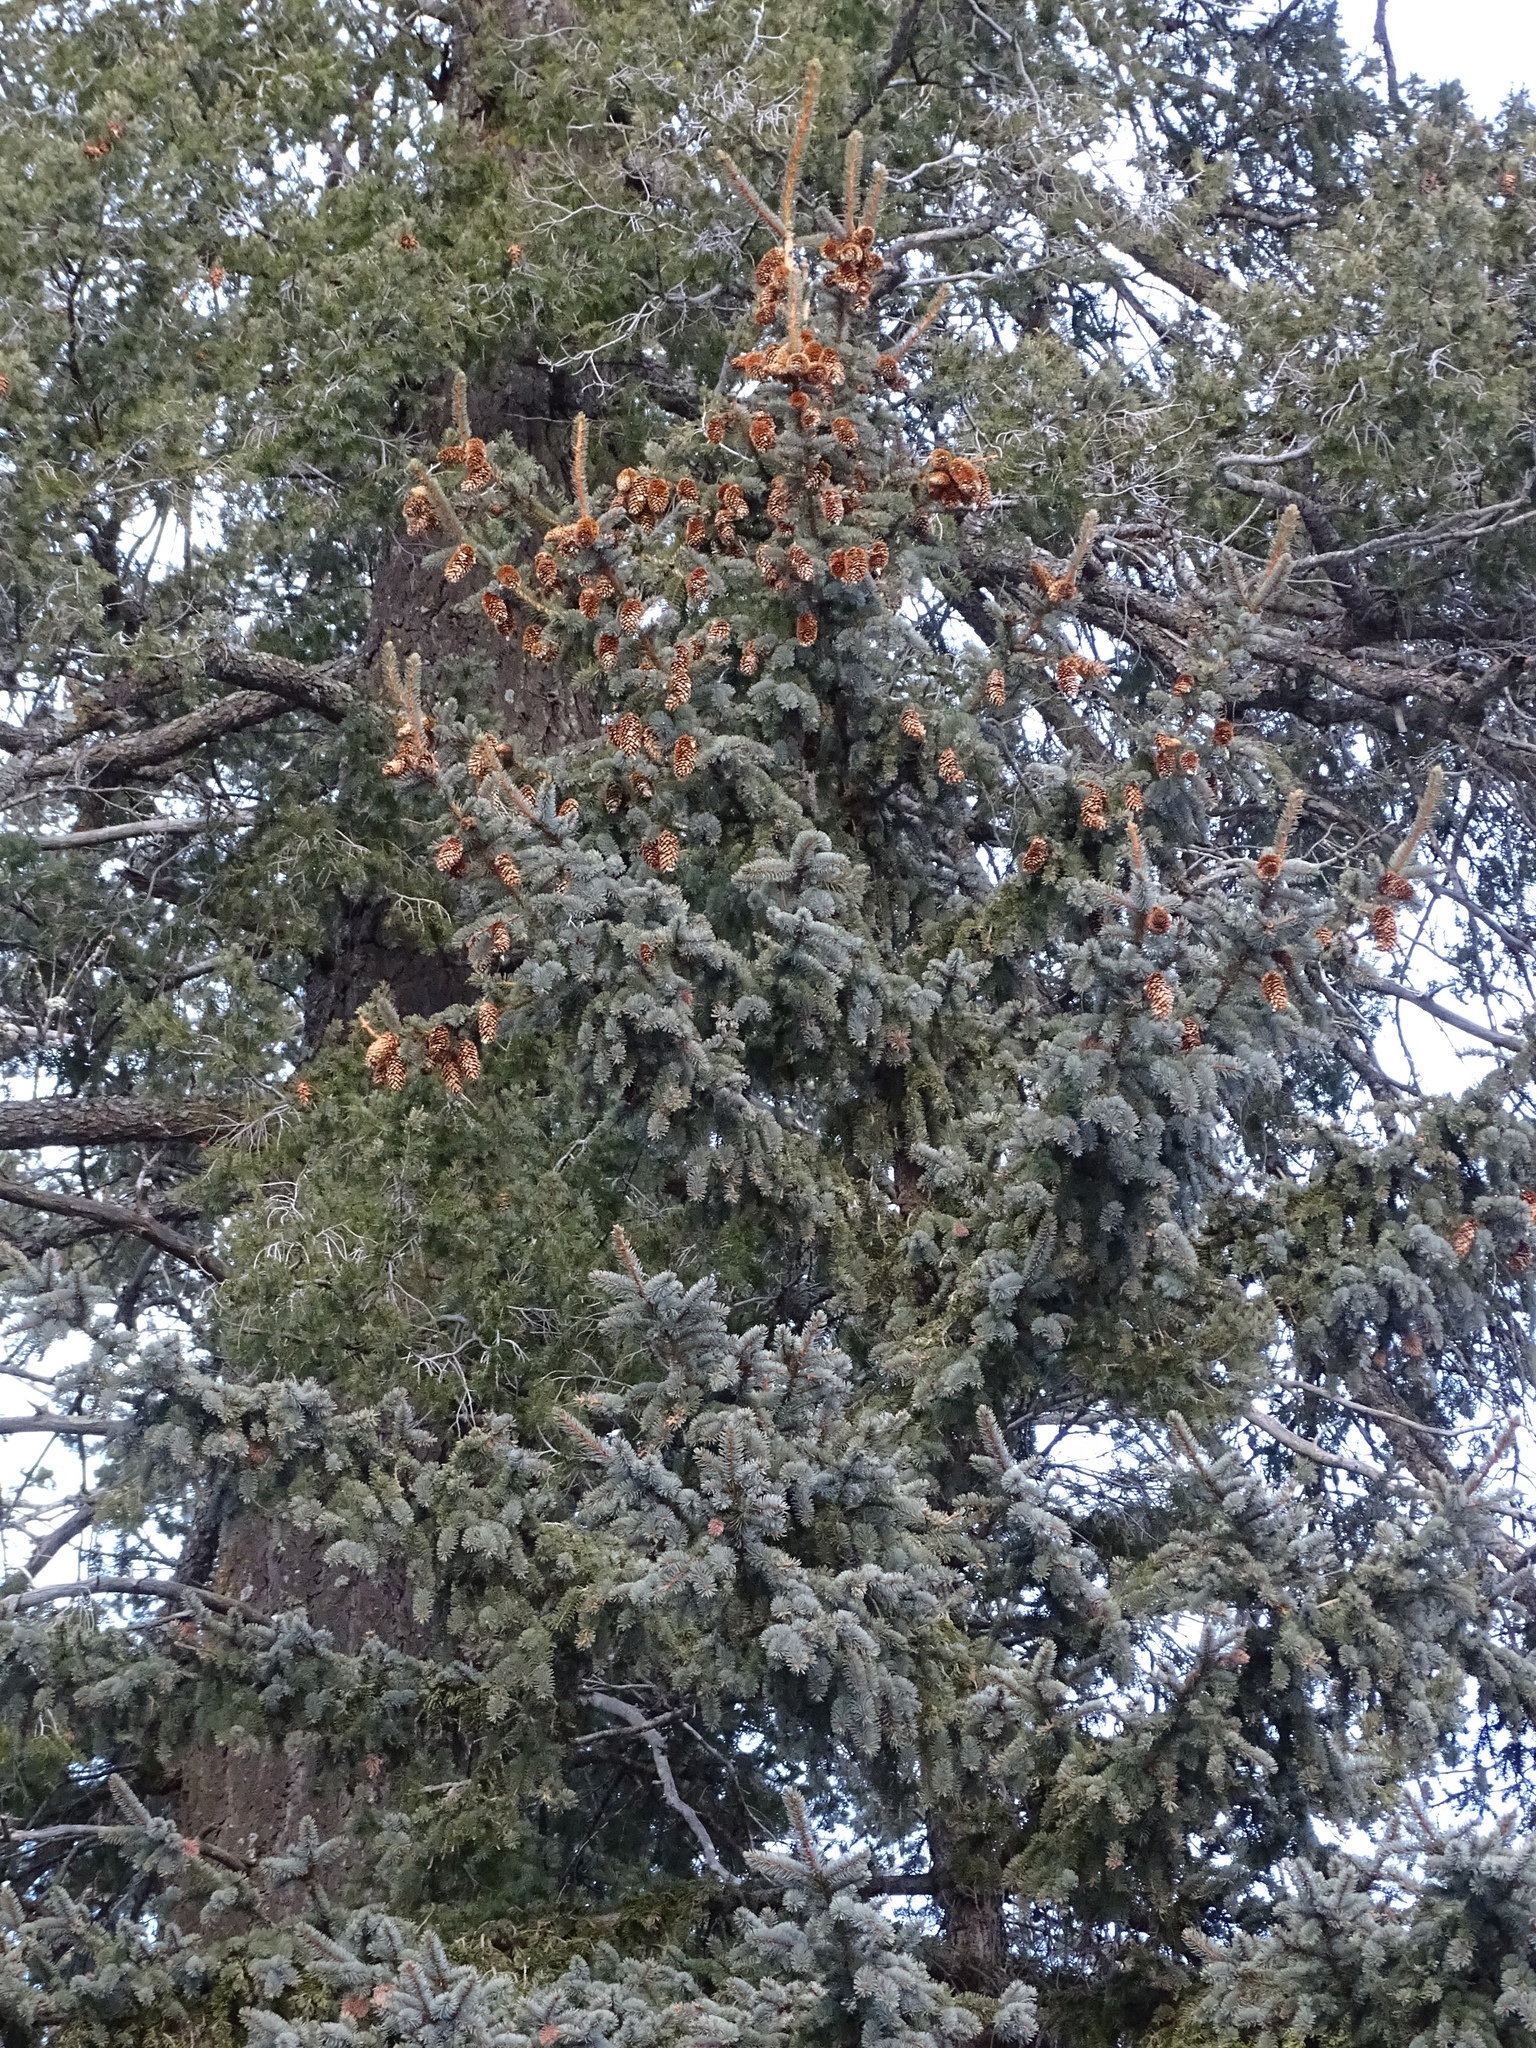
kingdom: Plantae
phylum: Tracheophyta
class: Pinopsida
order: Pinales
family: Pinaceae
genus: Picea
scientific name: Picea pungens
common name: Colorado spruce
